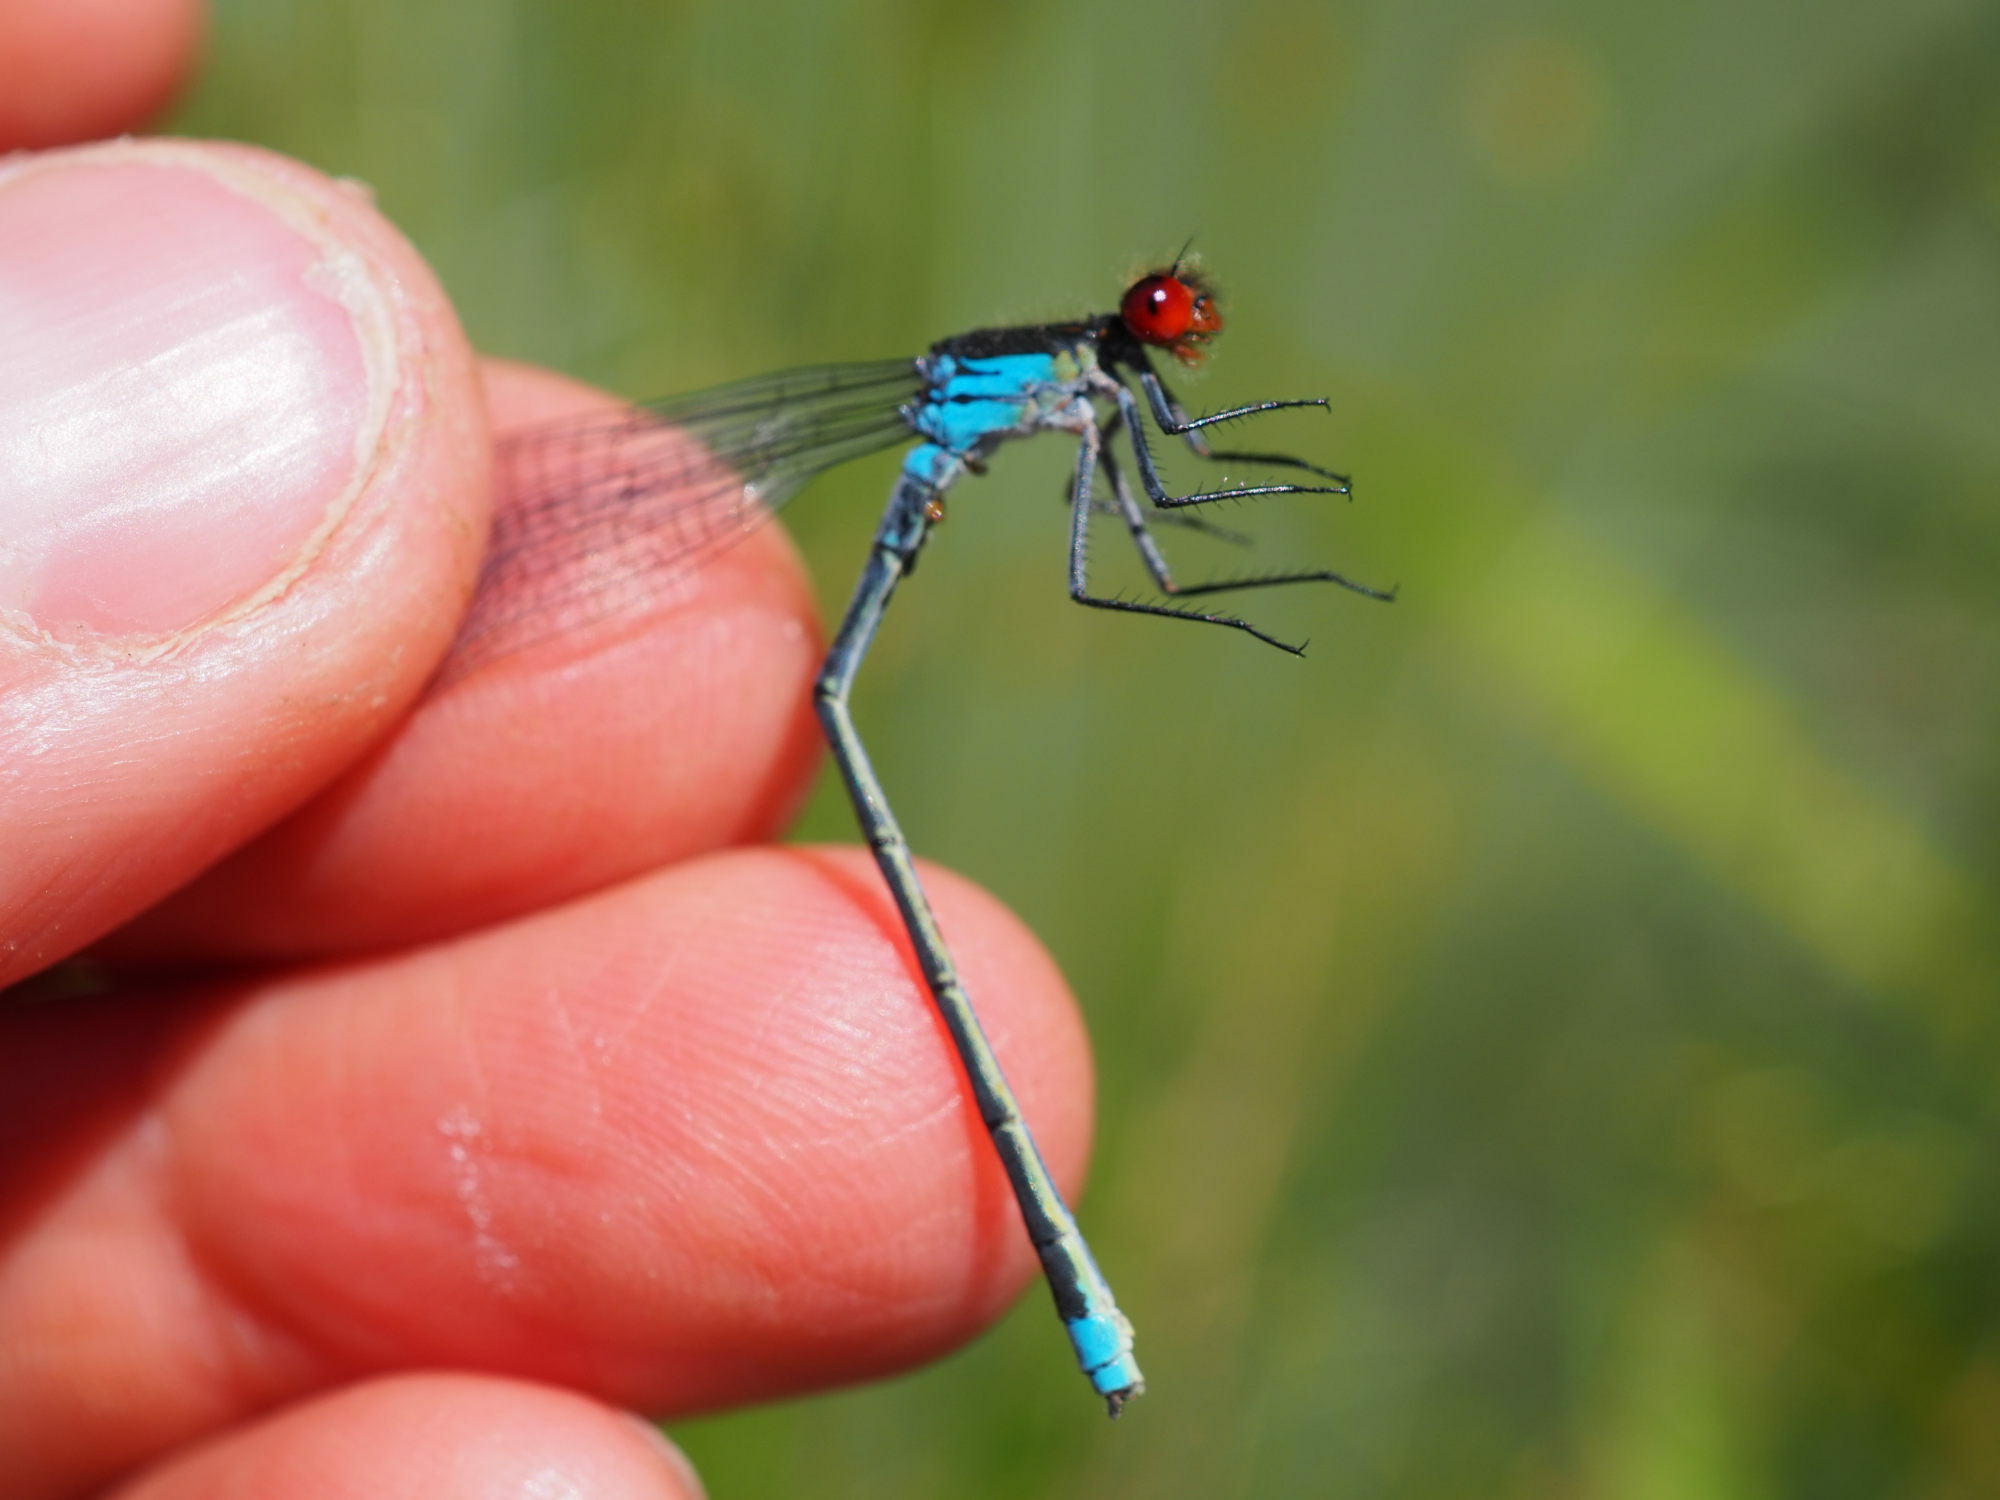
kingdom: Animalia
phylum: Arthropoda
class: Insecta
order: Odonata
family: Coenagrionidae
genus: Erythromma
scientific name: Erythromma najas
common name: Red-eyed damselfly
